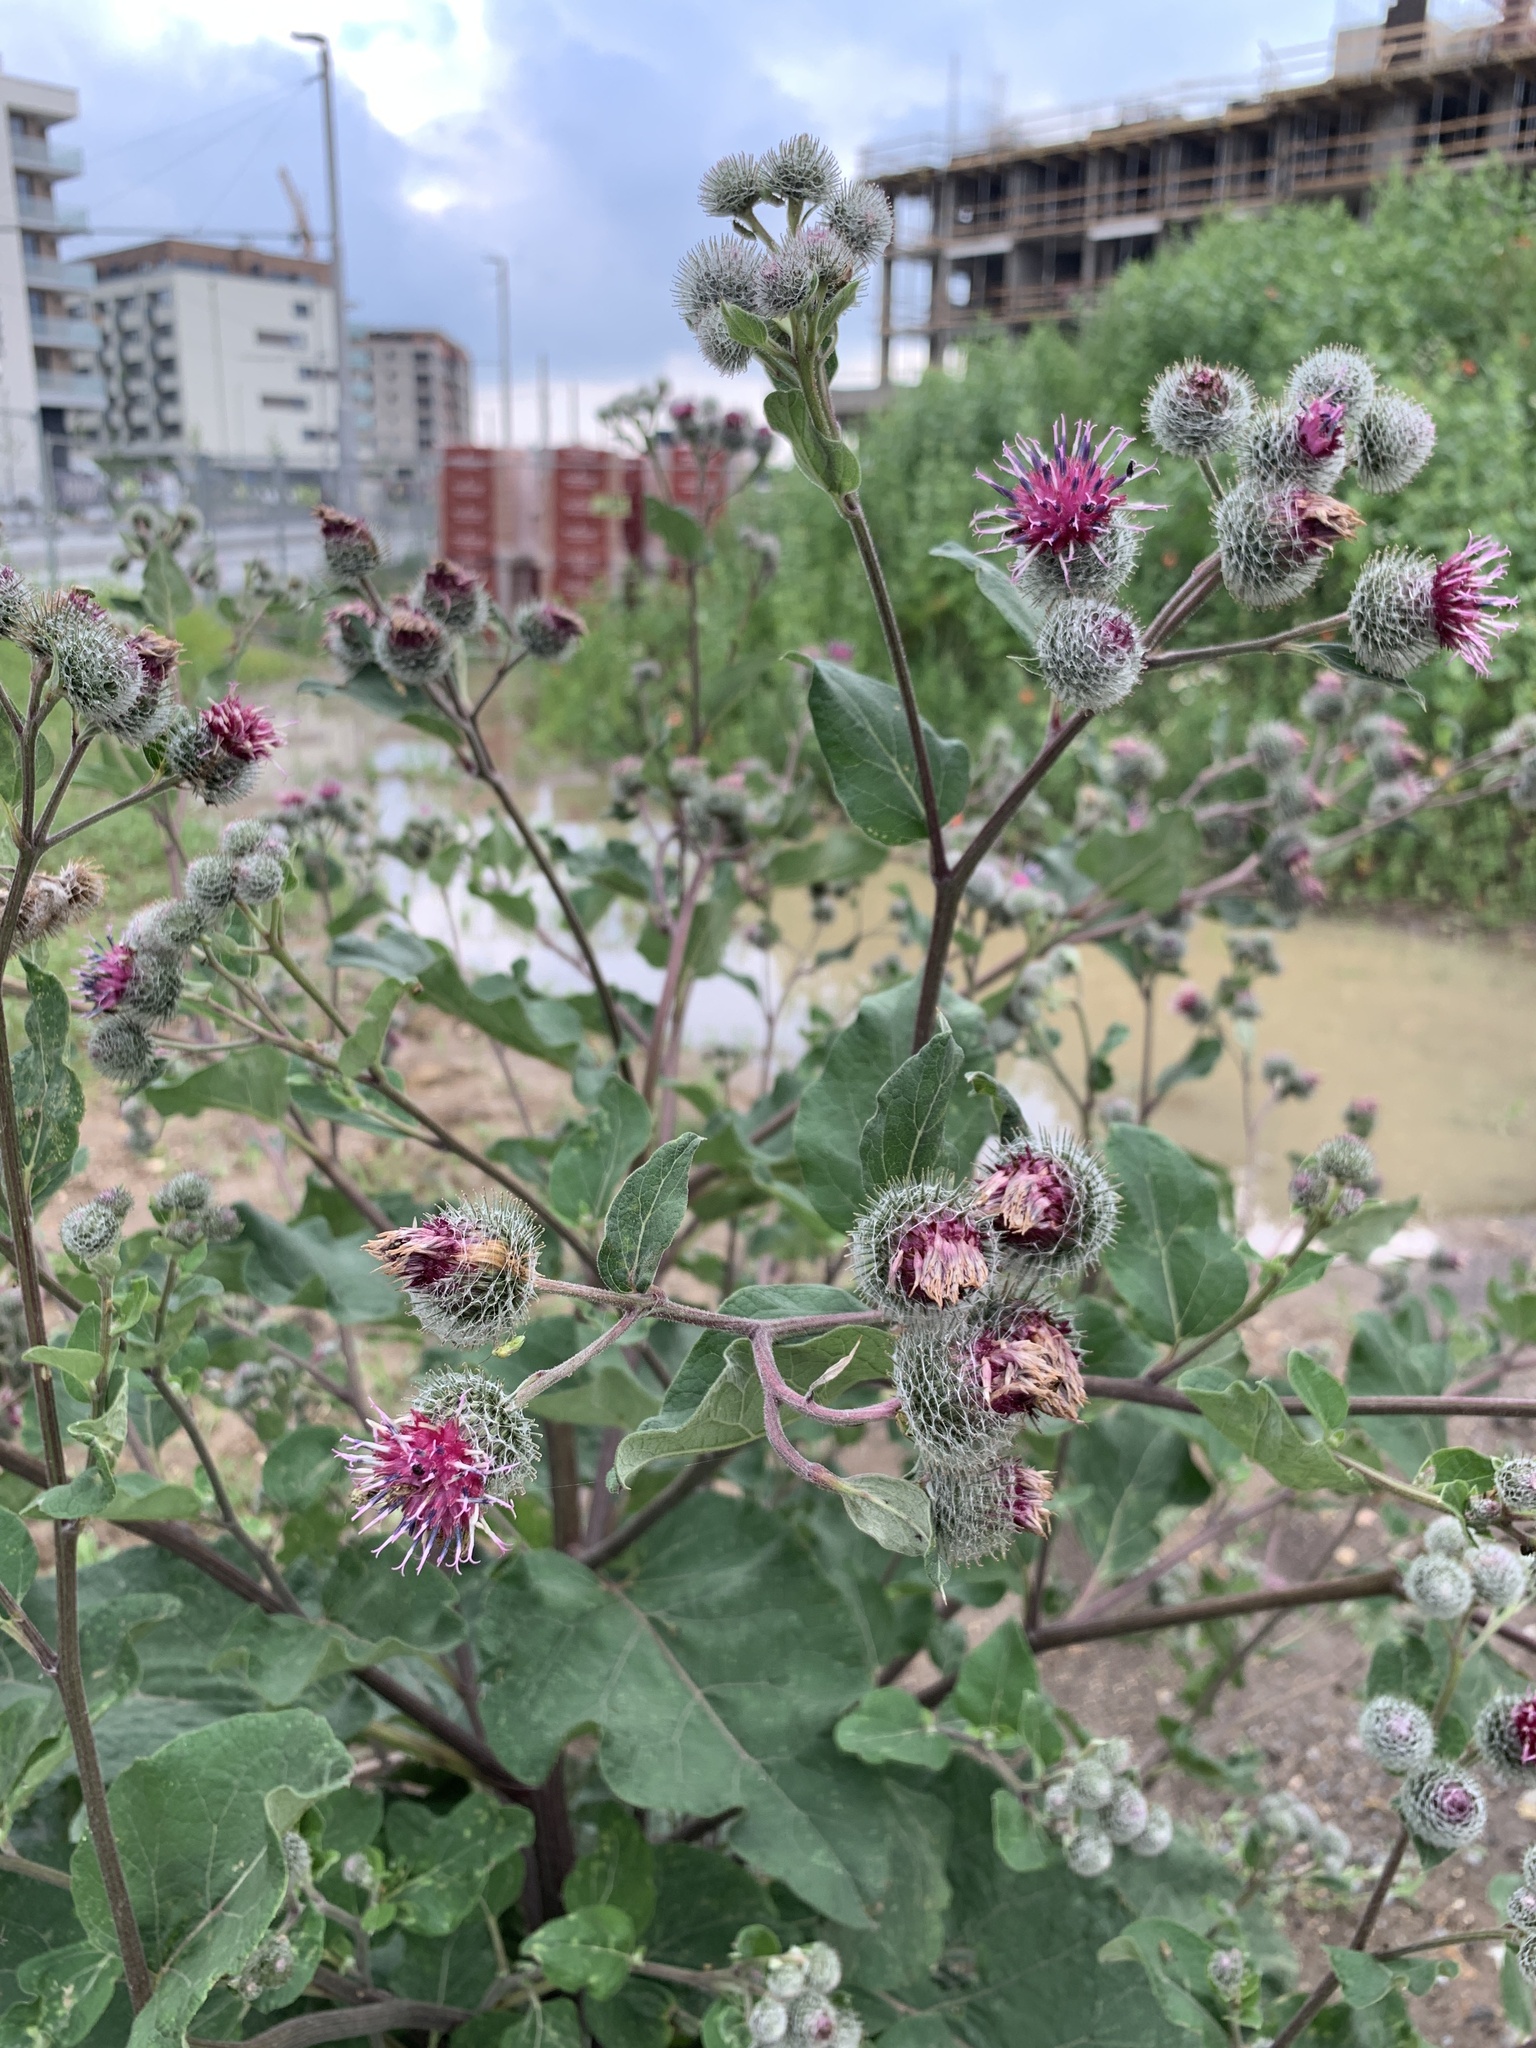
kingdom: Plantae
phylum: Tracheophyta
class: Magnoliopsida
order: Asterales
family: Asteraceae
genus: Arctium
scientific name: Arctium tomentosum
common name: Woolly burdock
